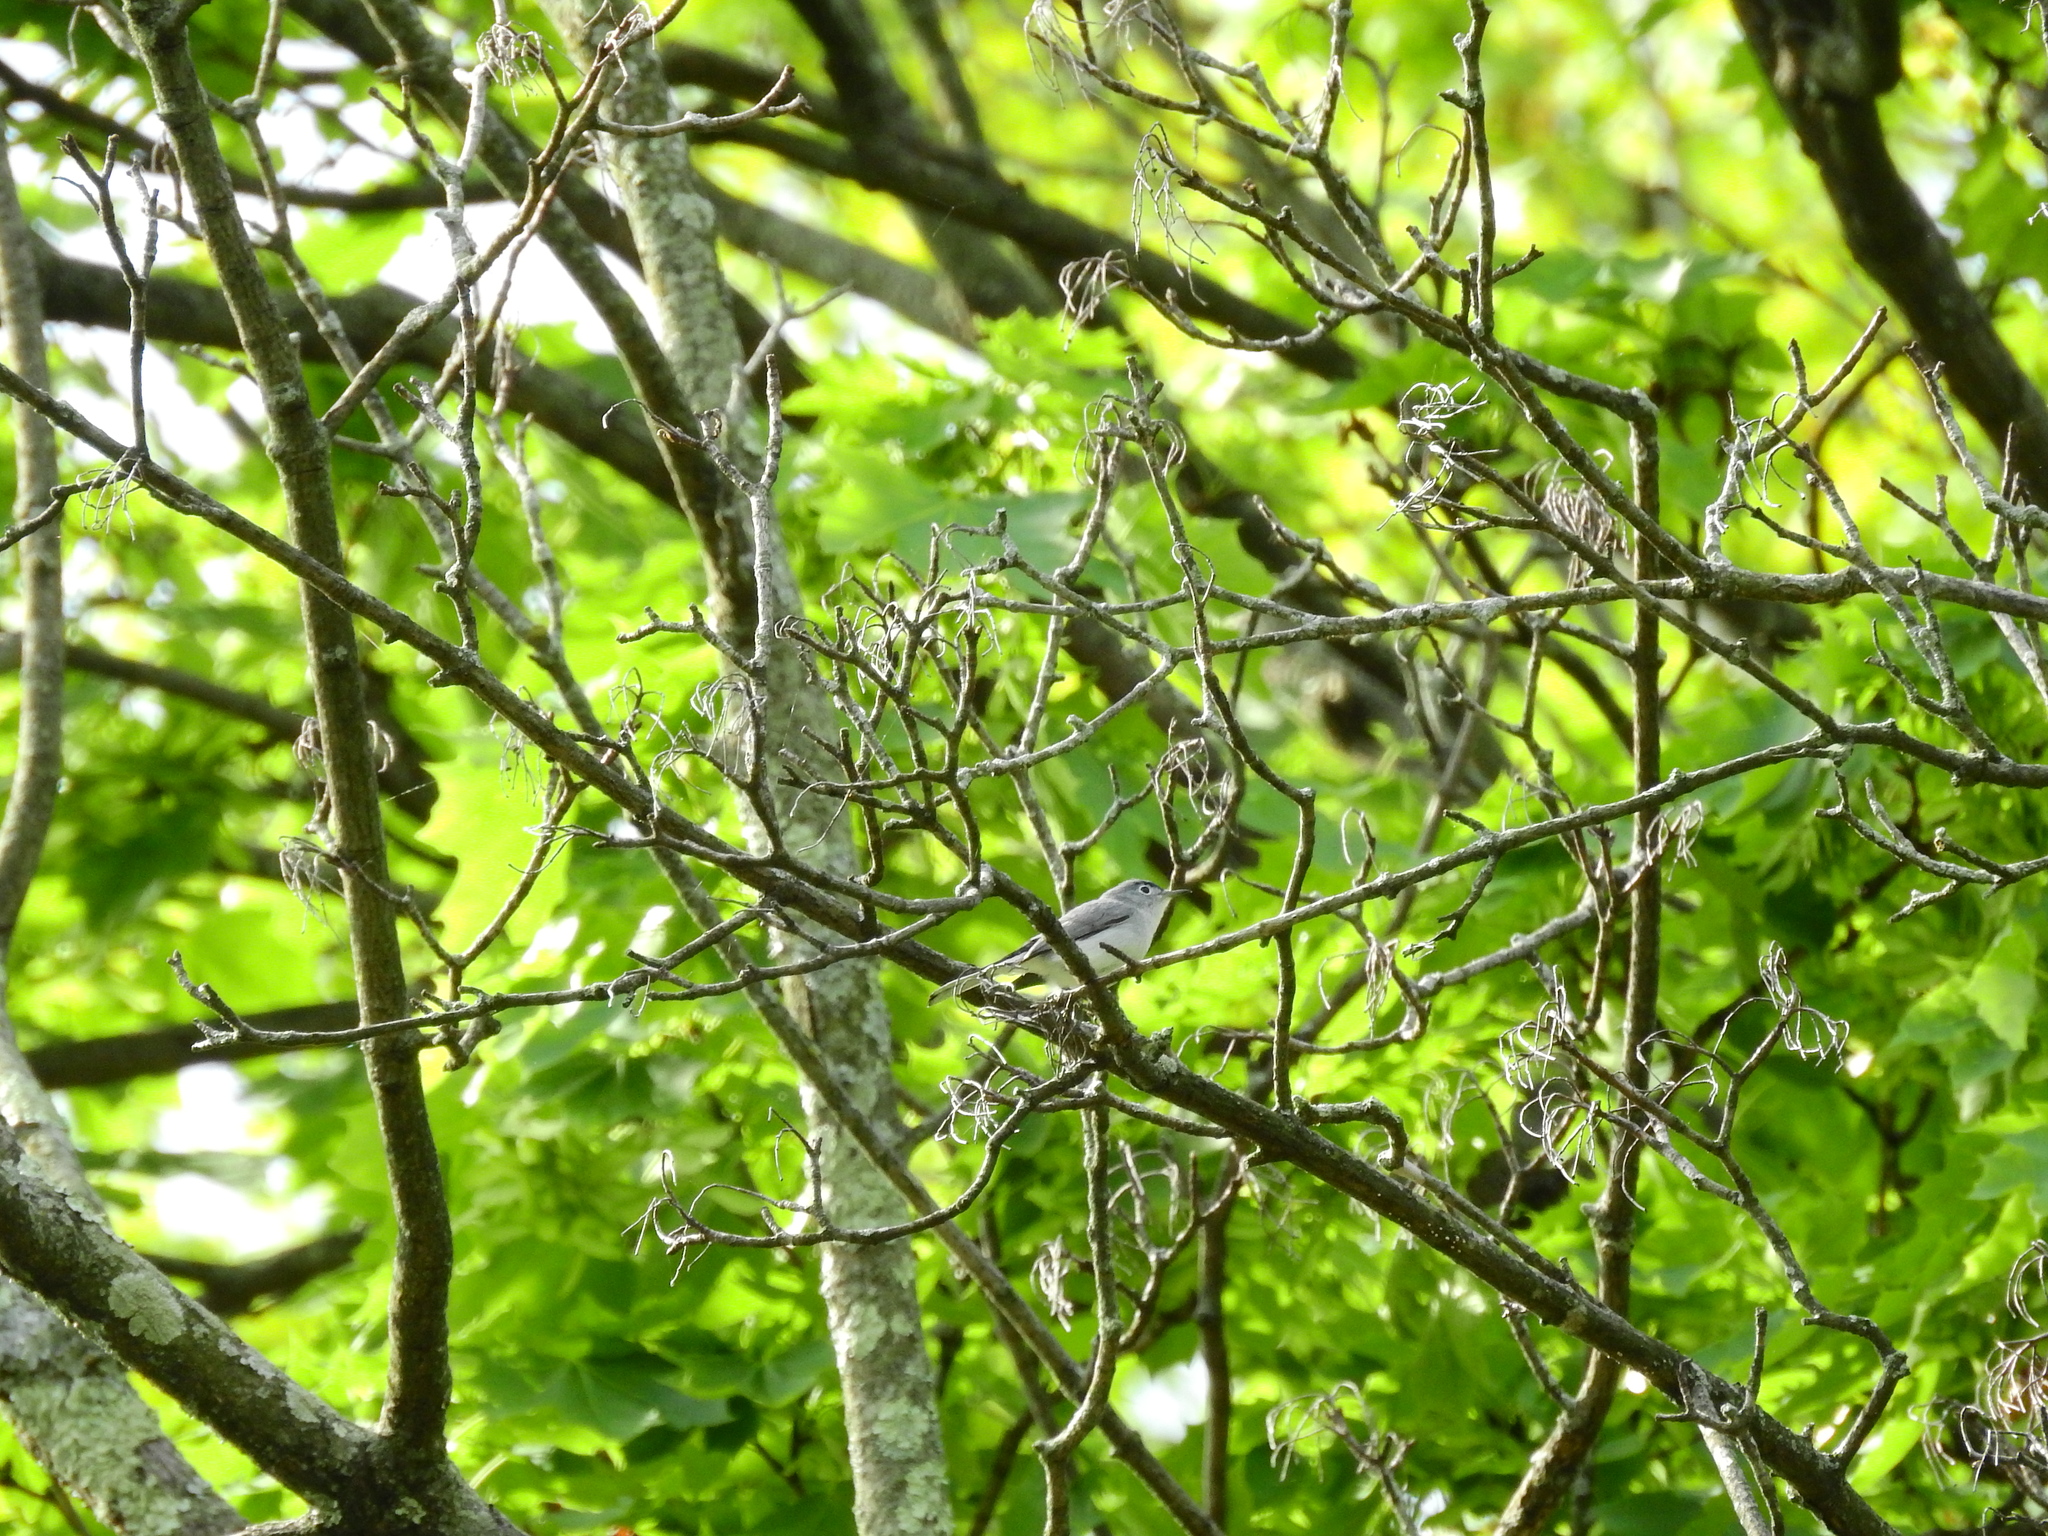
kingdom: Animalia
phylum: Chordata
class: Aves
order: Passeriformes
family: Polioptilidae
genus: Polioptila
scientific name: Polioptila caerulea
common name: Blue-gray gnatcatcher
